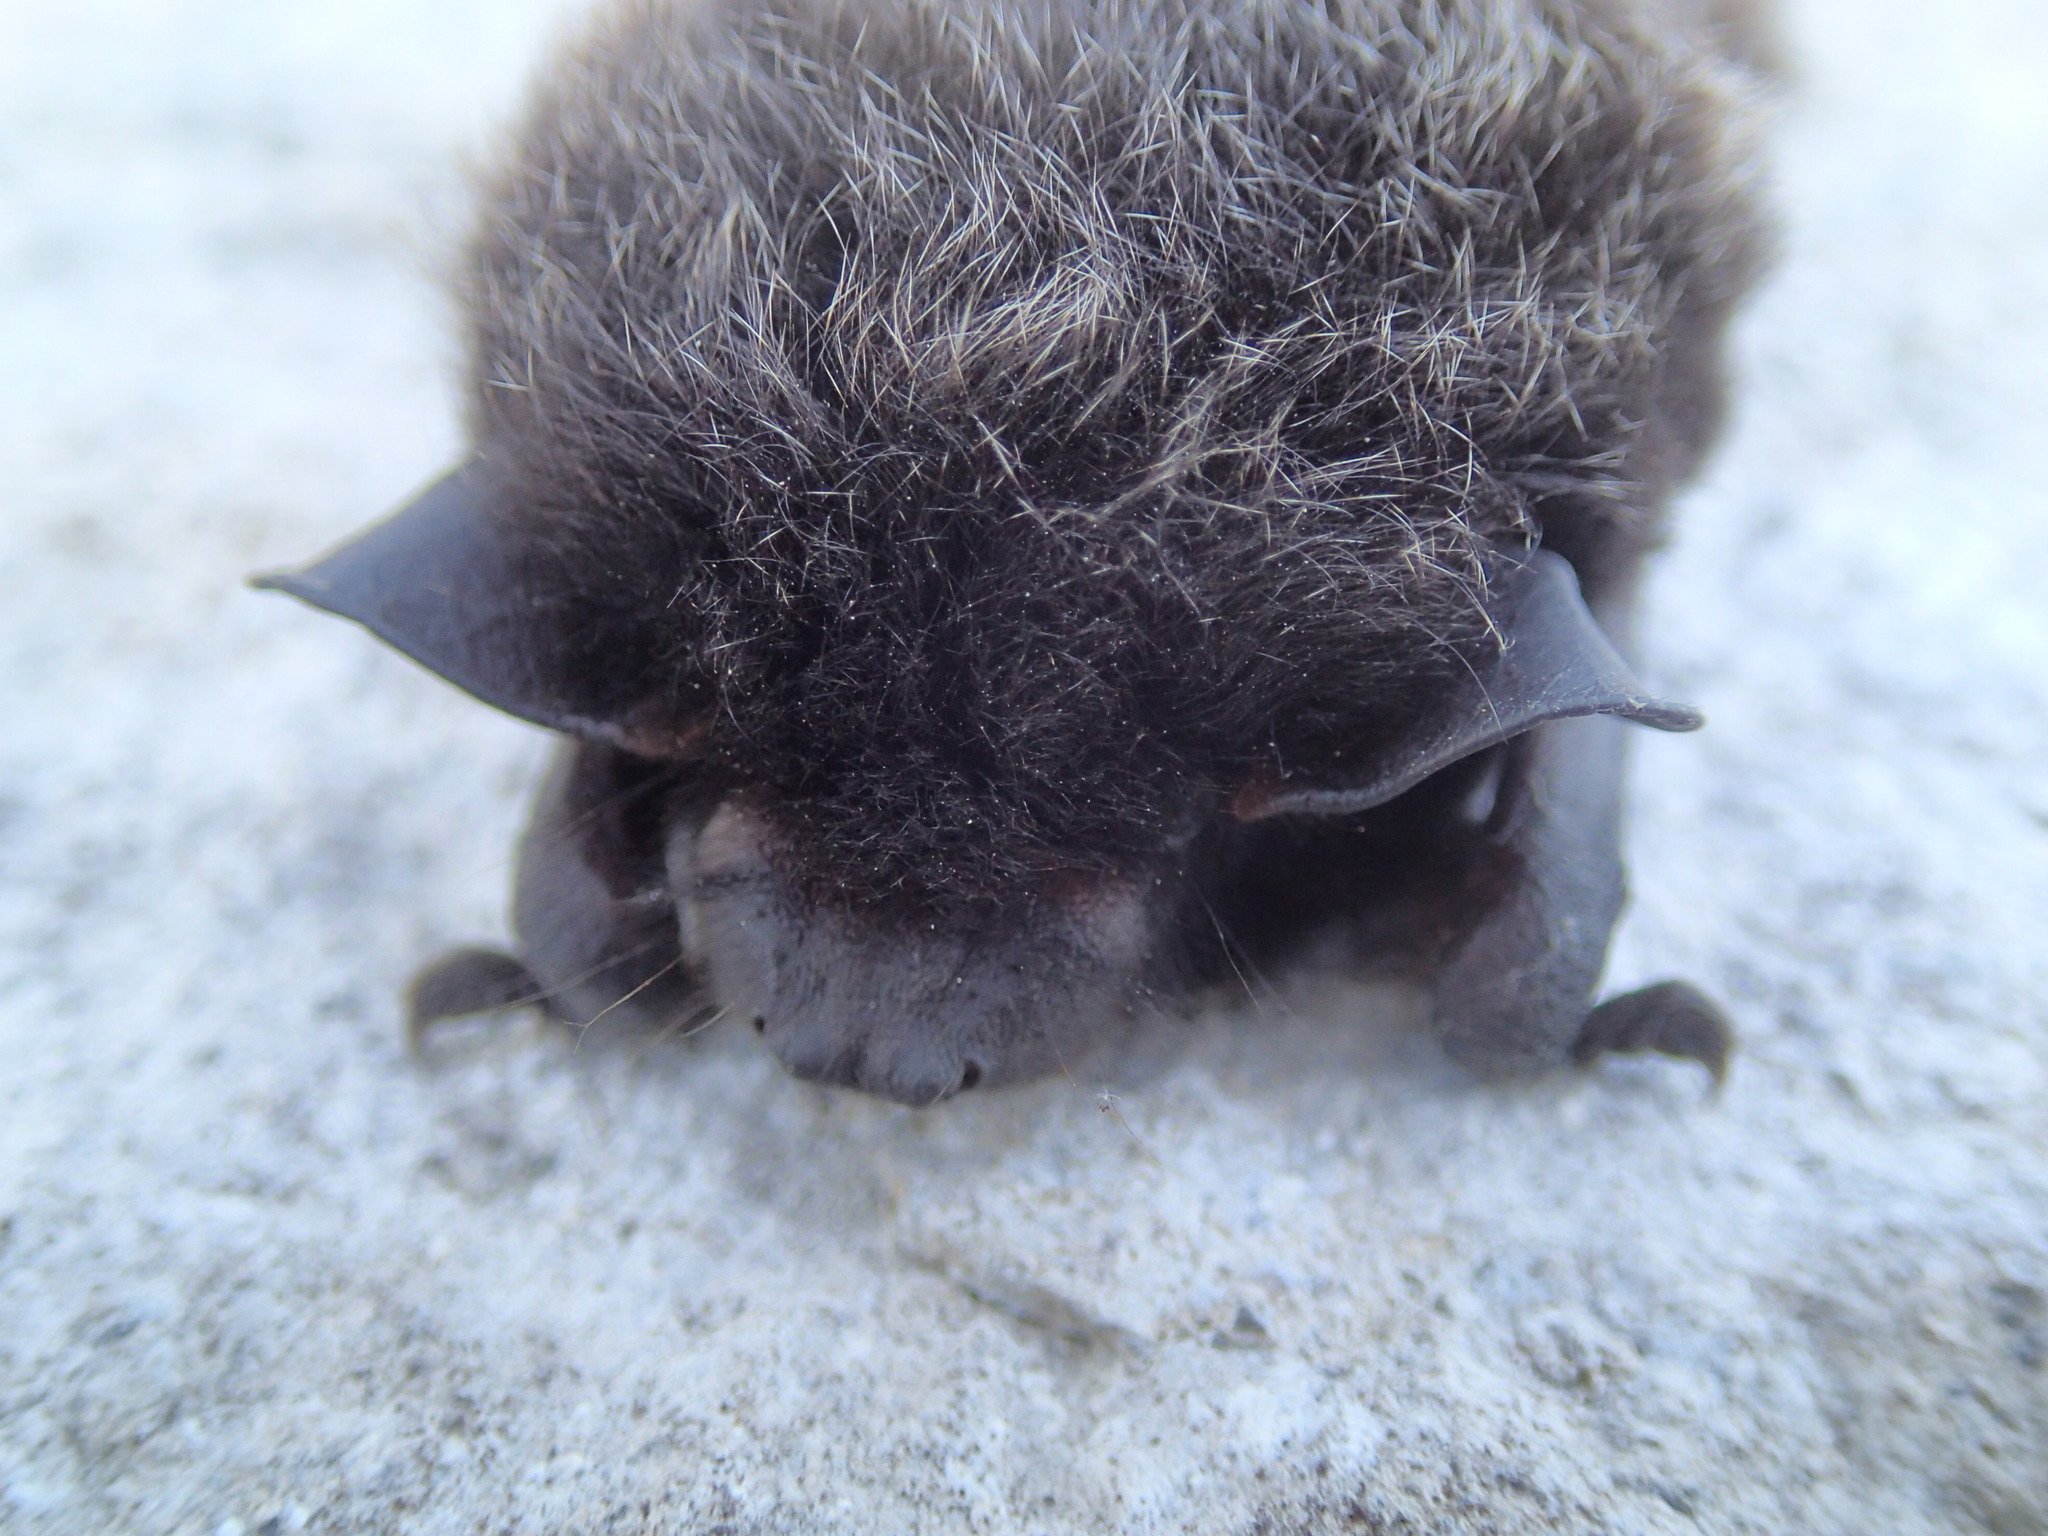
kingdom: Animalia
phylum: Chordata
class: Mammalia
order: Chiroptera
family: Vespertilionidae
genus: Lasionycteris
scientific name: Lasionycteris noctivagans
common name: Silver-haired bat
